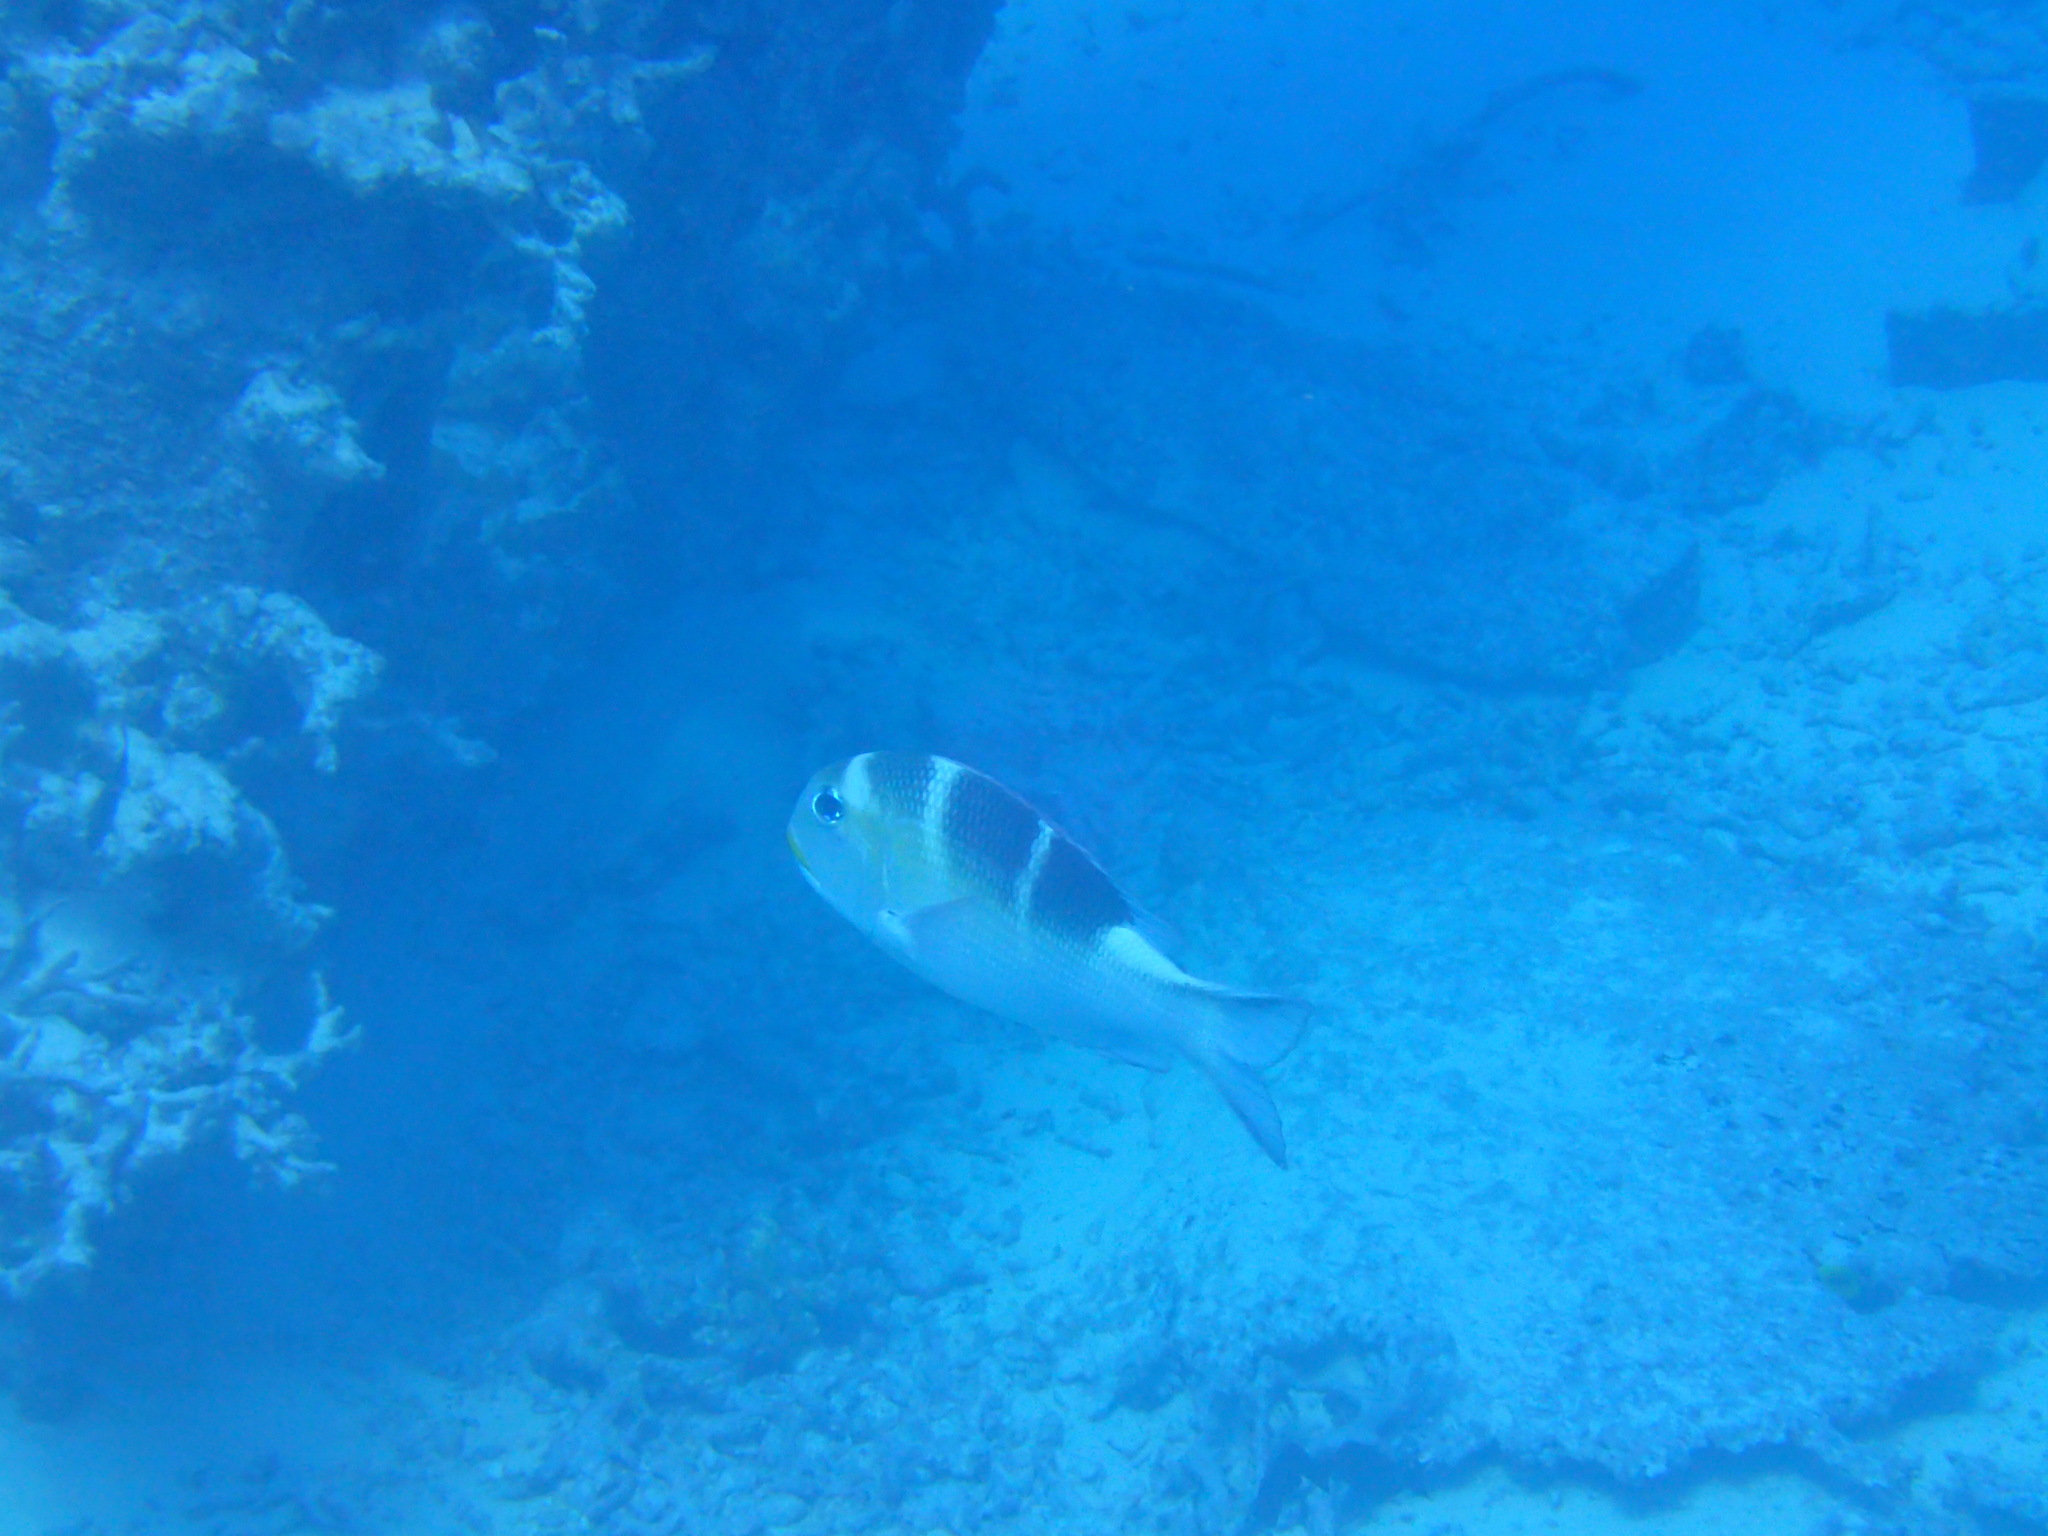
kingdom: Animalia
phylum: Chordata
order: Perciformes
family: Lethrinidae
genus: Monotaxis
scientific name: Monotaxis grandoculis
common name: Bigeye emperor
